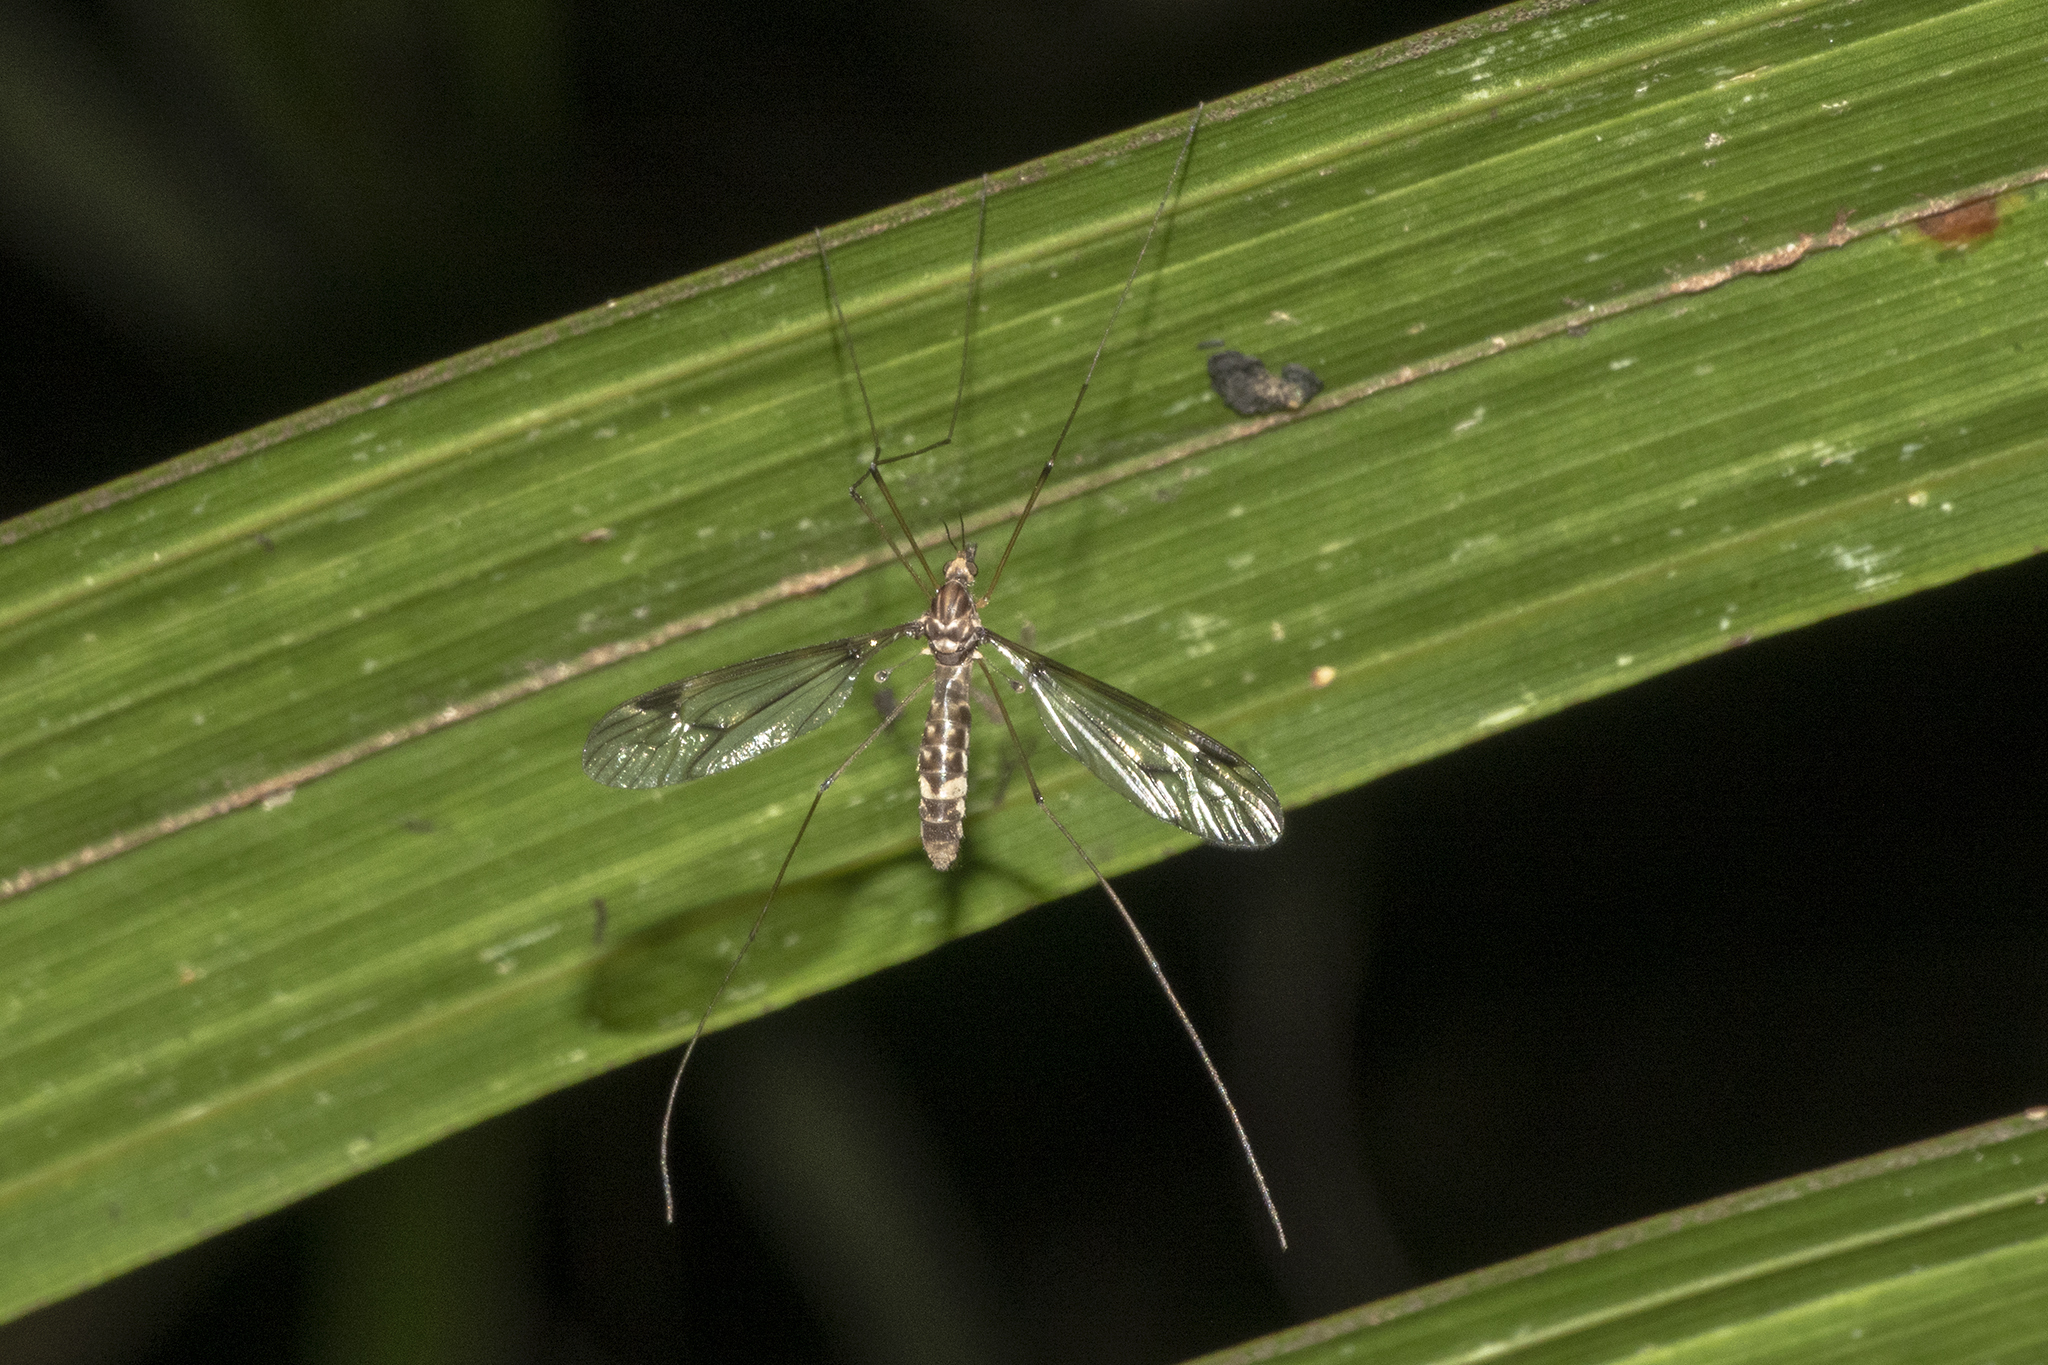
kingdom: Animalia
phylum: Arthropoda
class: Insecta
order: Diptera
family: Tipulidae
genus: Leptotarsus
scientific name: Leptotarsus cubitalis
